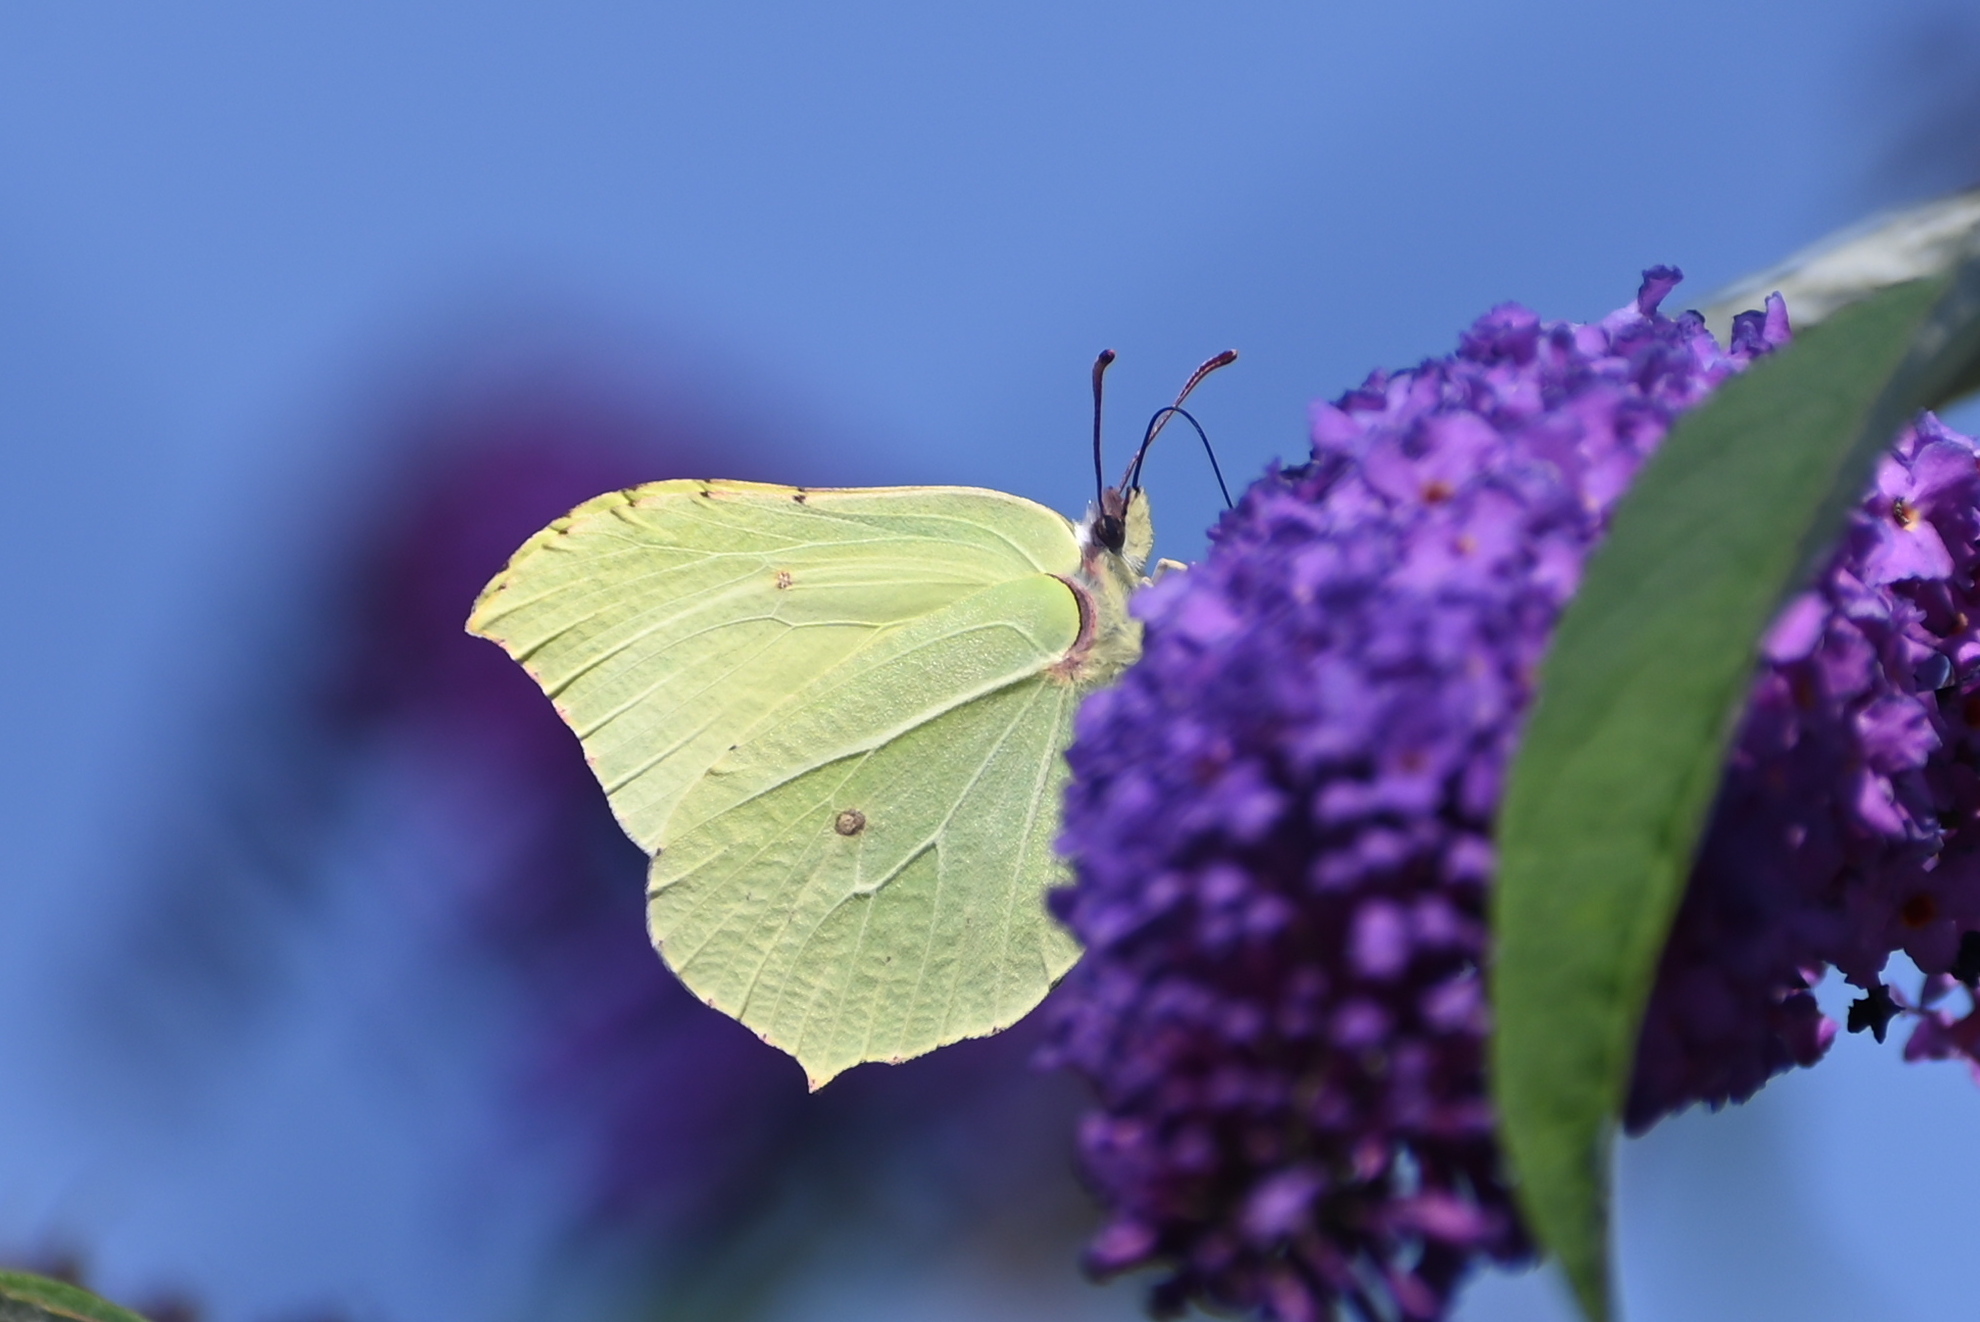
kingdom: Animalia
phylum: Arthropoda
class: Insecta
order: Lepidoptera
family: Pieridae
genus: Gonepteryx
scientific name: Gonepteryx rhamni
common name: Brimstone
